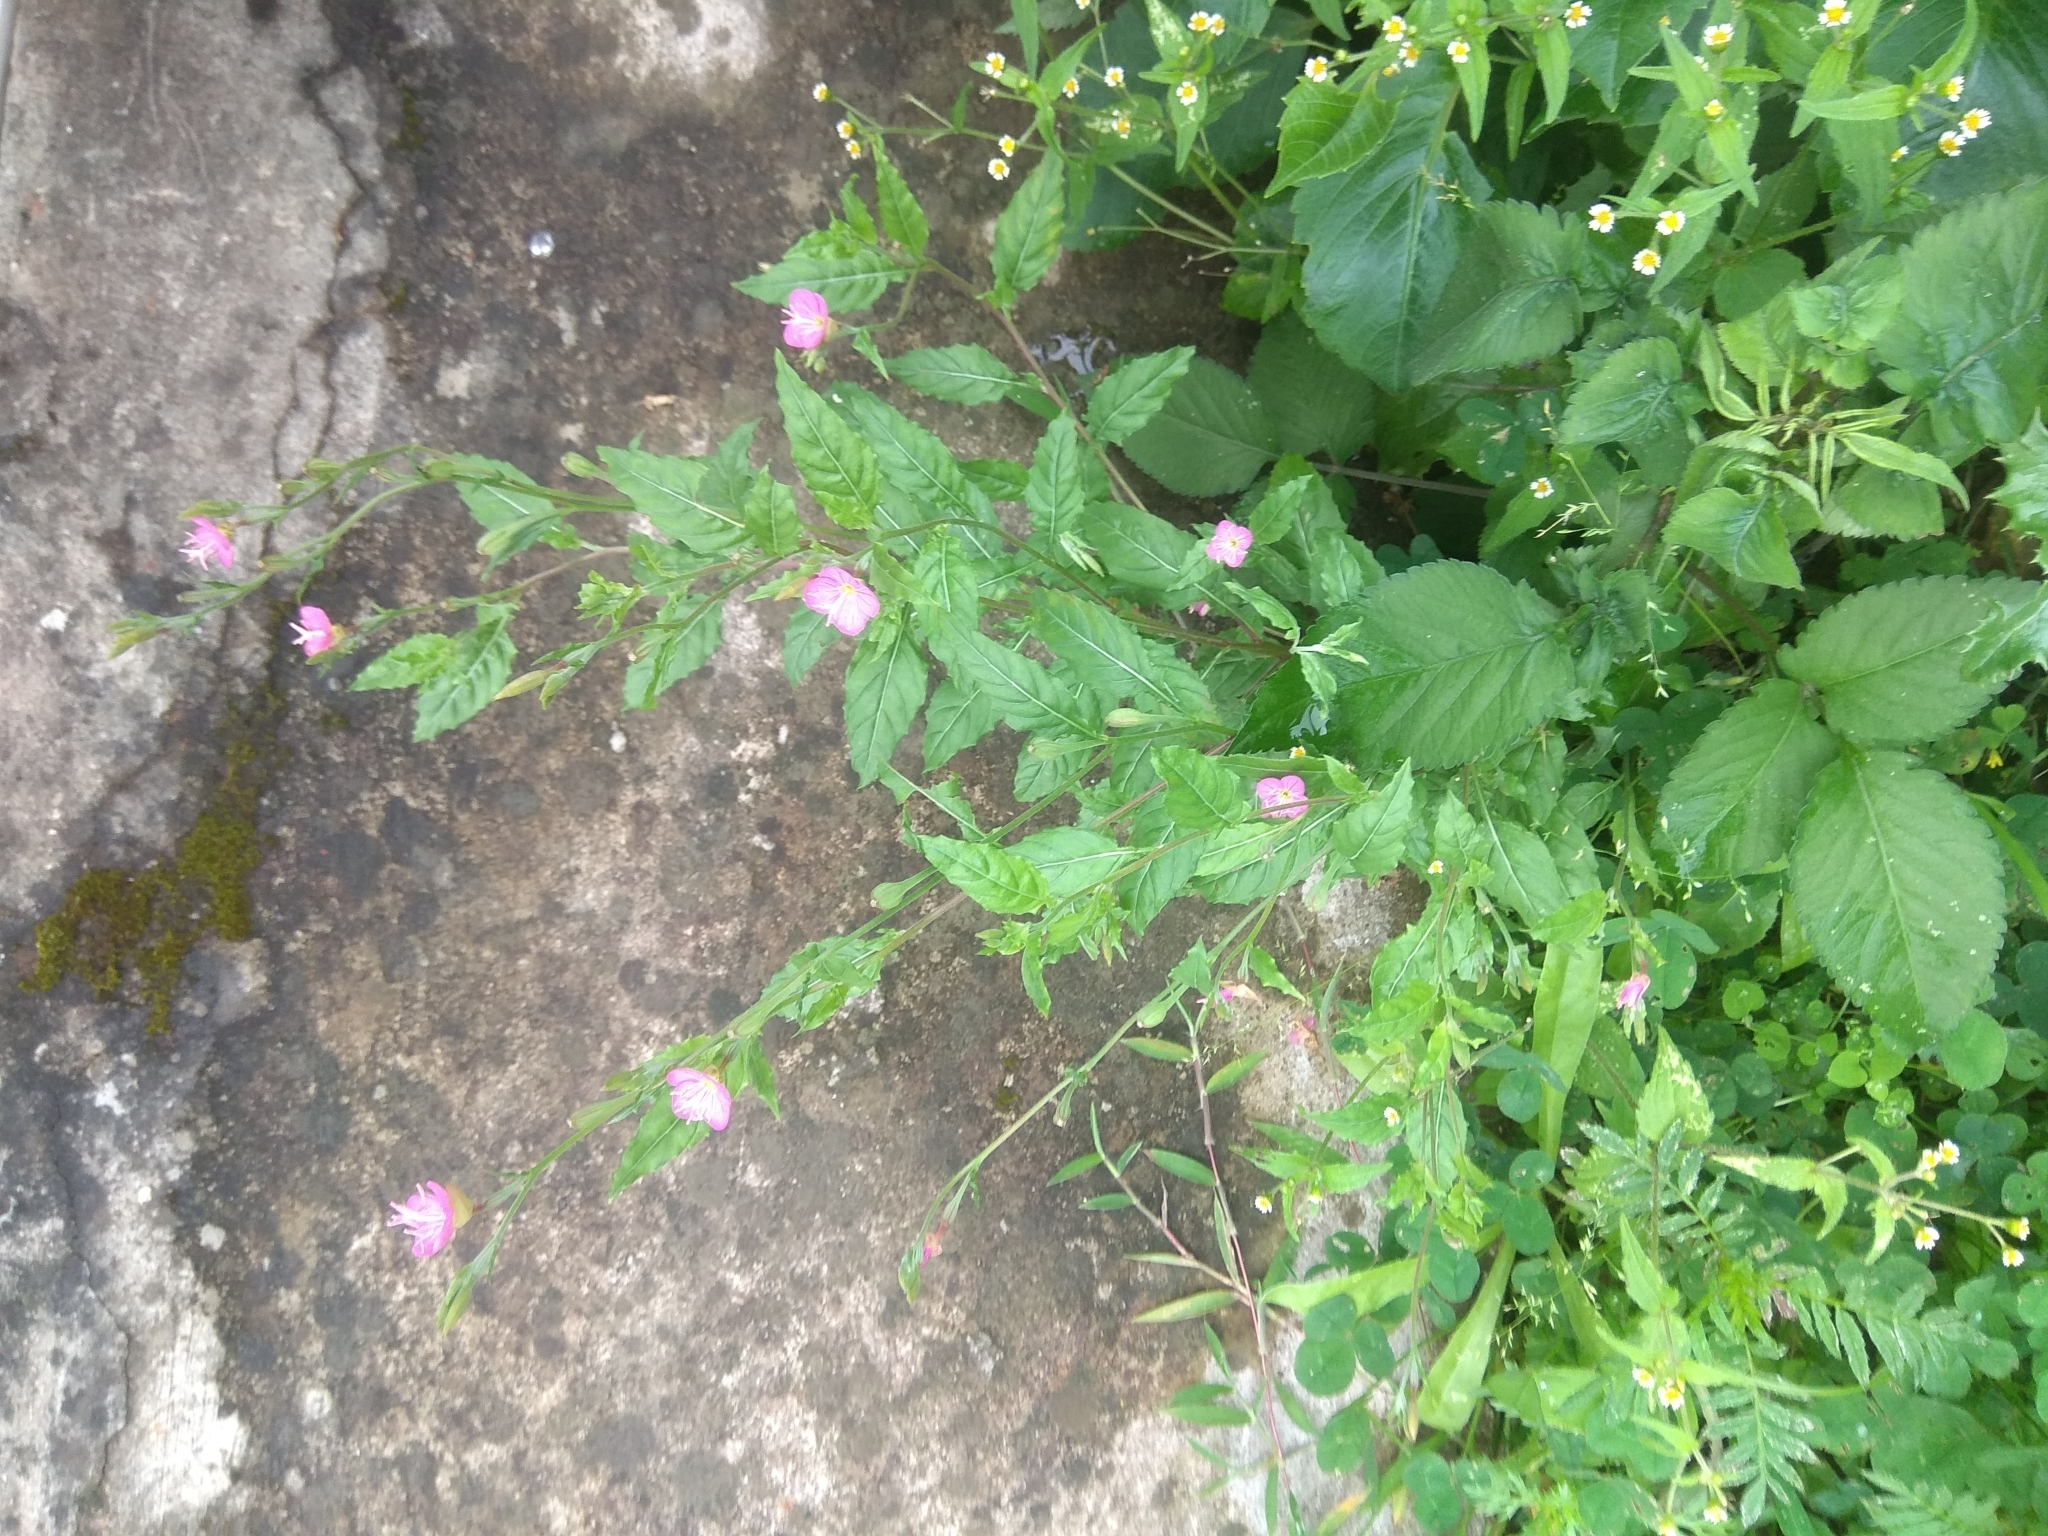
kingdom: Plantae
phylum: Tracheophyta
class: Magnoliopsida
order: Myrtales
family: Onagraceae
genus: Oenothera
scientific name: Oenothera rosea
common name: Rosy evening-primrose
